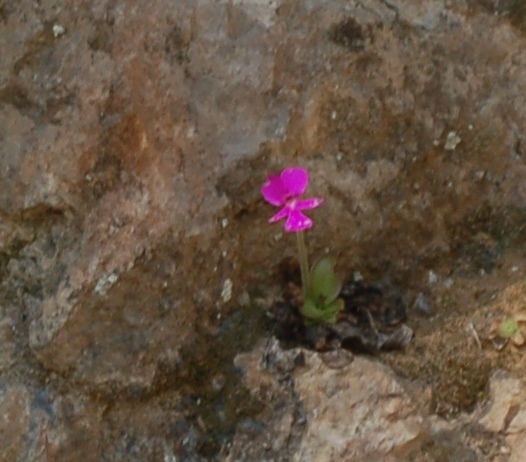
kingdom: Plantae
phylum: Tracheophyta
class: Magnoliopsida
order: Lamiales
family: Lentibulariaceae
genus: Pinguicula
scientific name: Pinguicula moranensis
